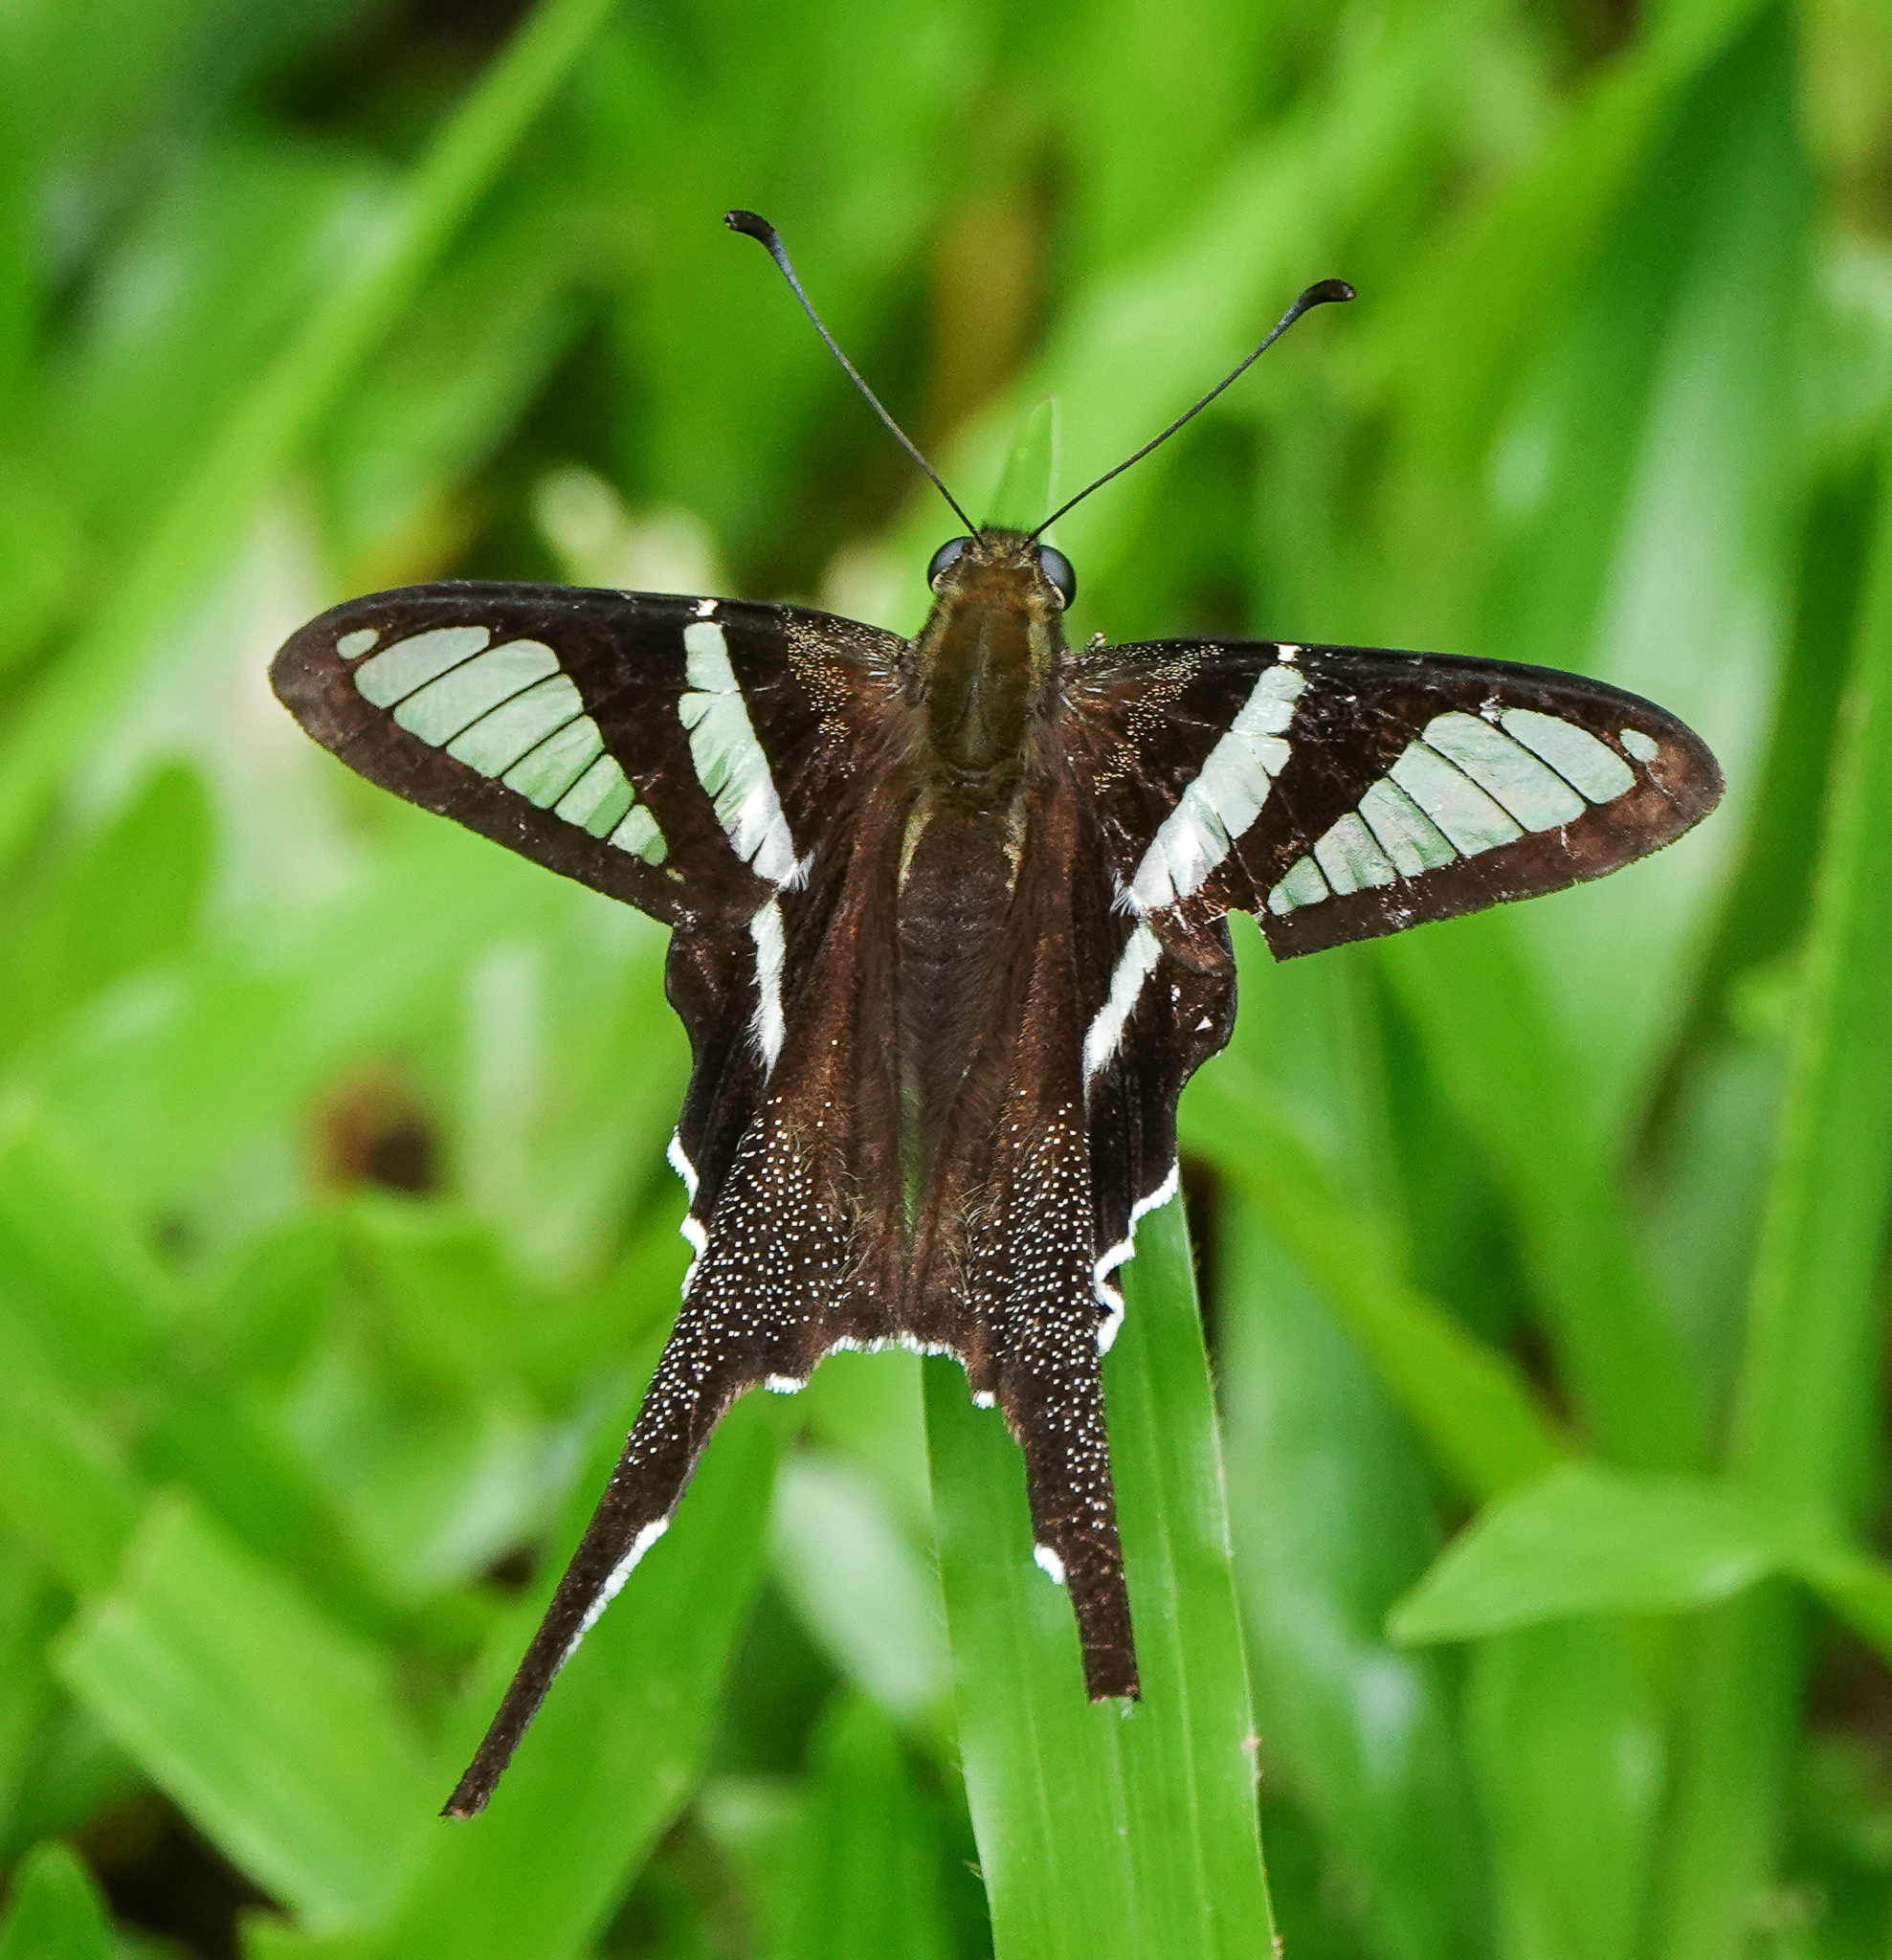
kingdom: Animalia
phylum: Arthropoda
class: Insecta
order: Lepidoptera
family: Papilionidae
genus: Lamproptera
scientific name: Lamproptera curius
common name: White dragontail
